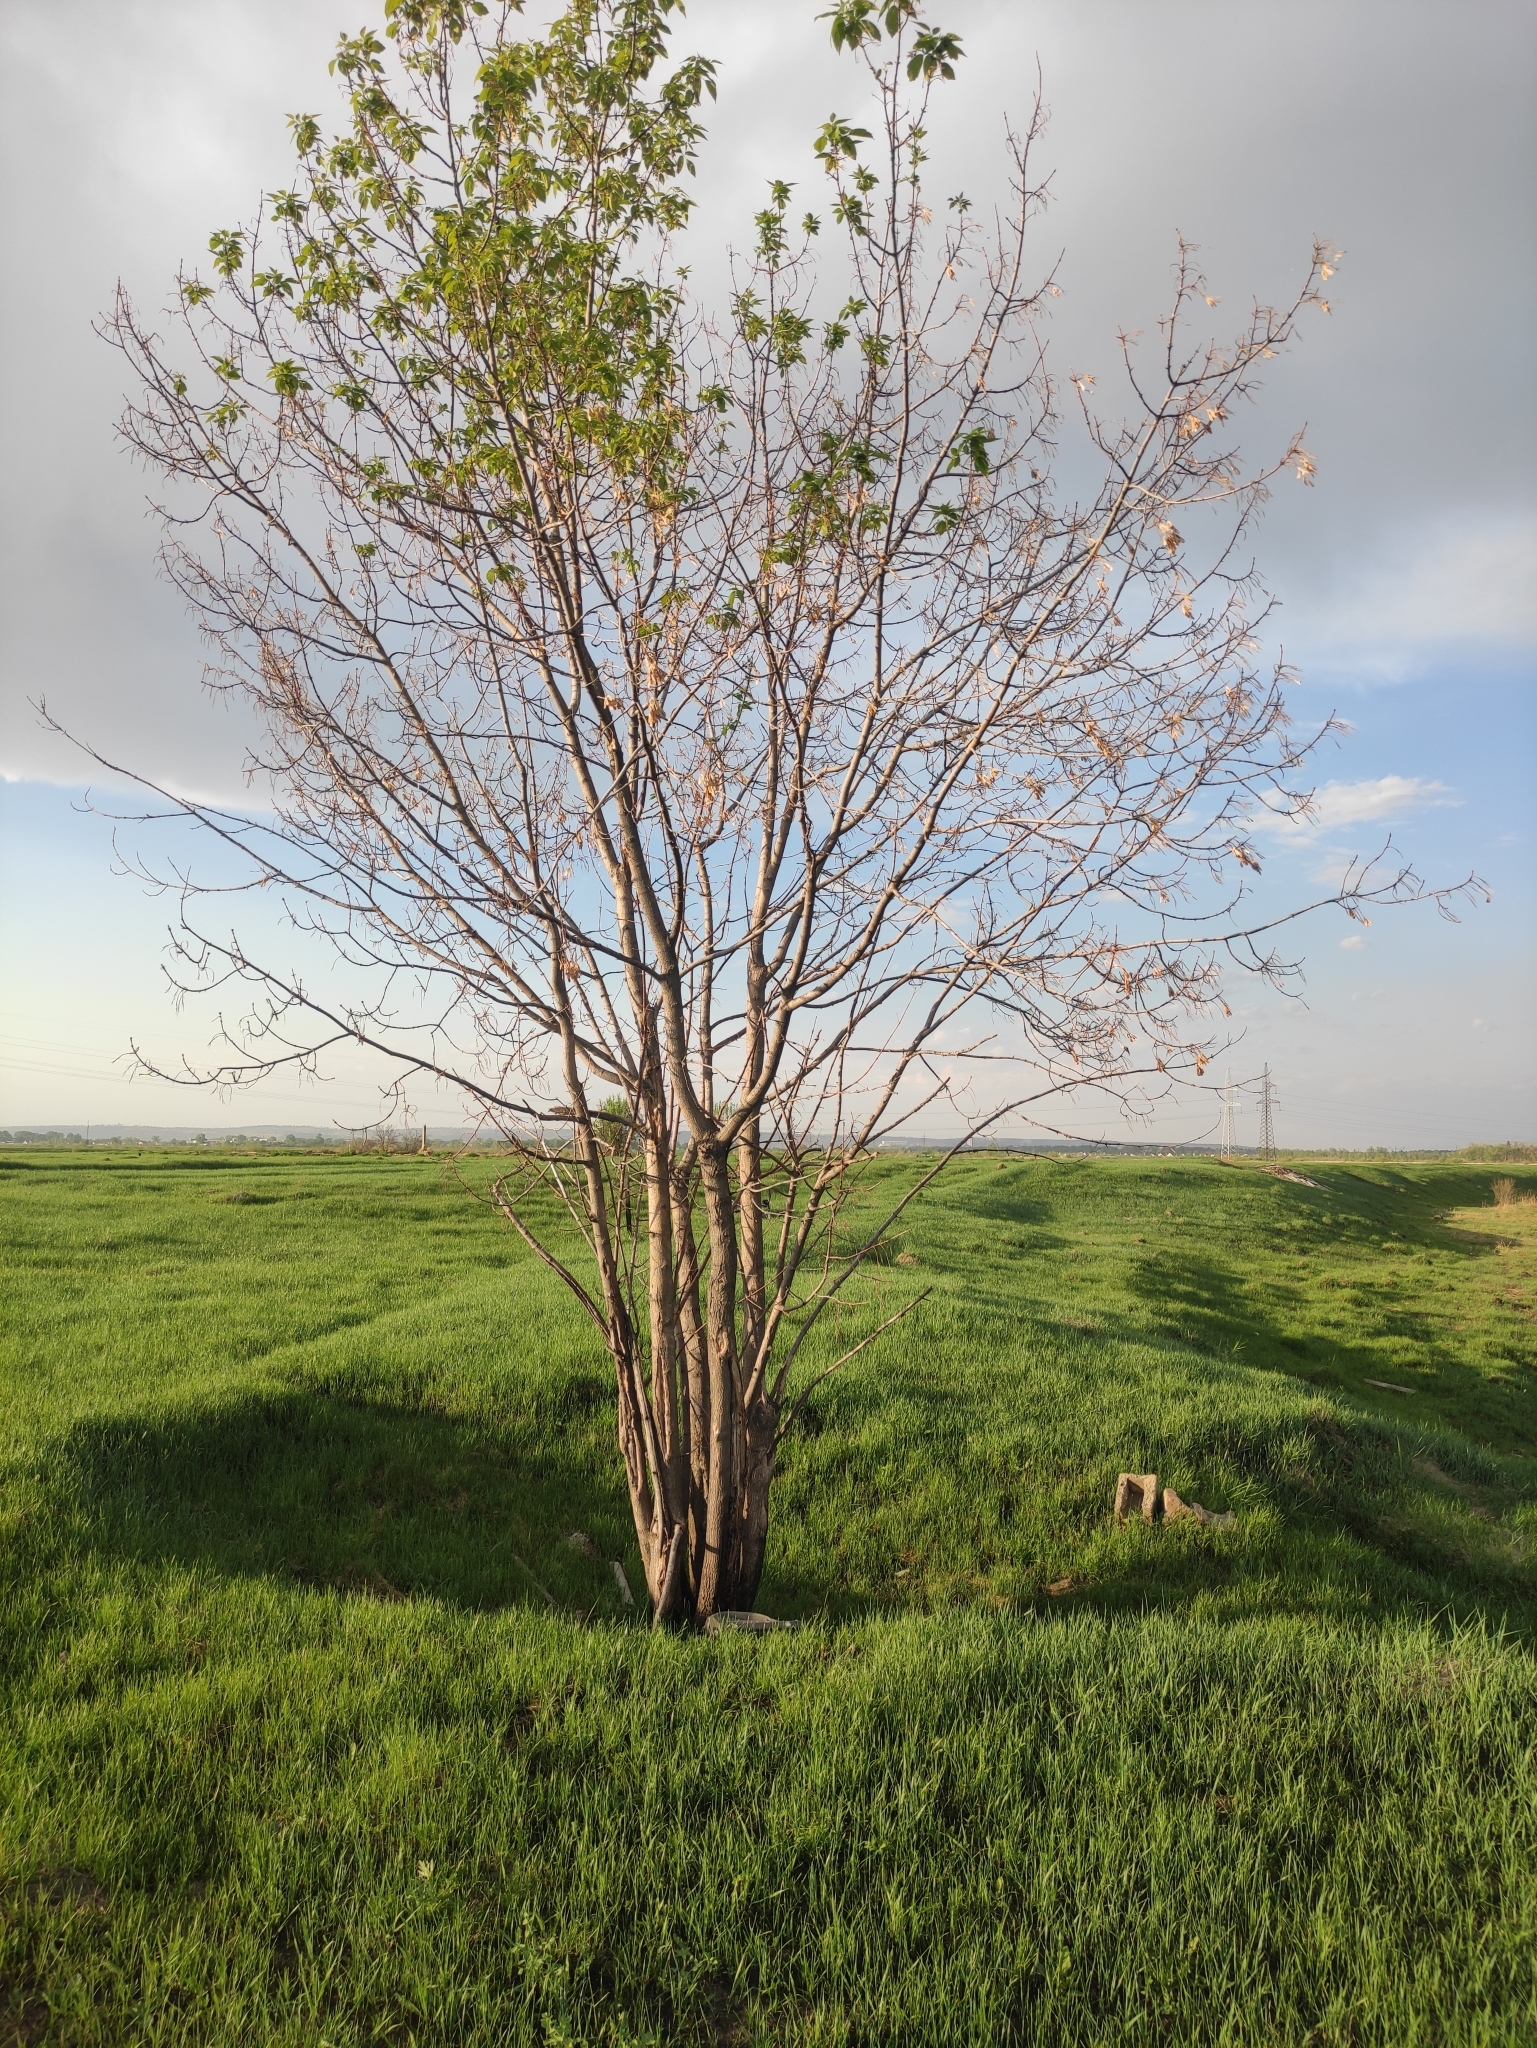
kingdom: Plantae
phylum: Tracheophyta
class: Magnoliopsida
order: Sapindales
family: Sapindaceae
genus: Acer
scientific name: Acer negundo
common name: Ashleaf maple
